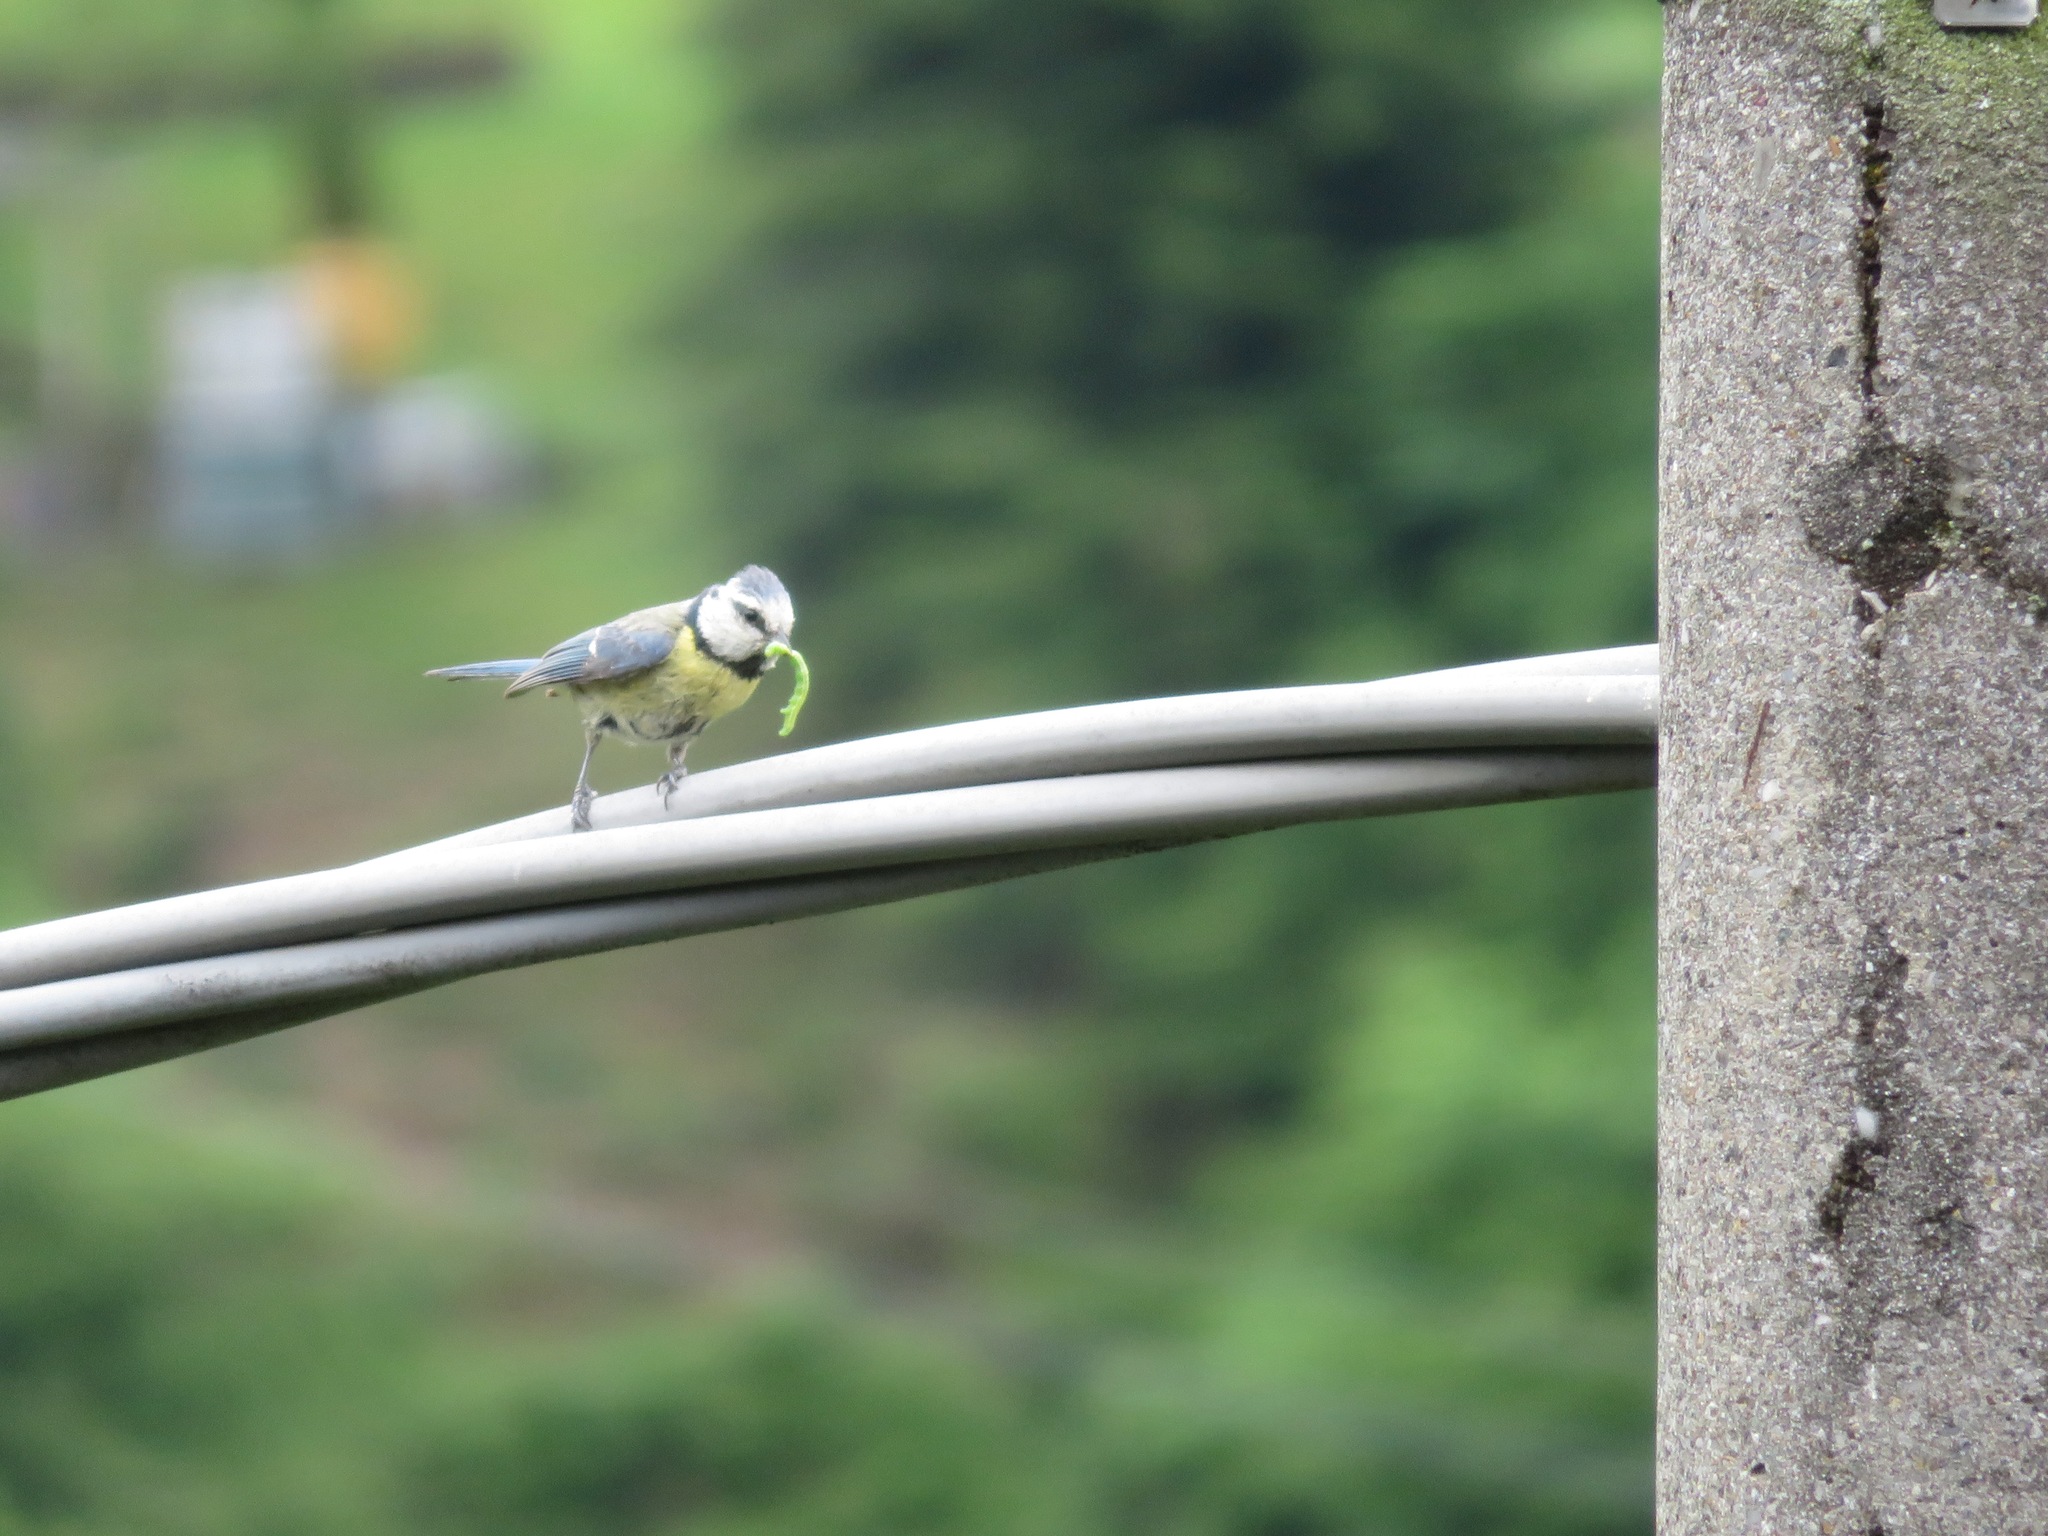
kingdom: Animalia
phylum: Chordata
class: Aves
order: Passeriformes
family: Paridae
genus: Cyanistes
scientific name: Cyanistes caeruleus
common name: Eurasian blue tit
